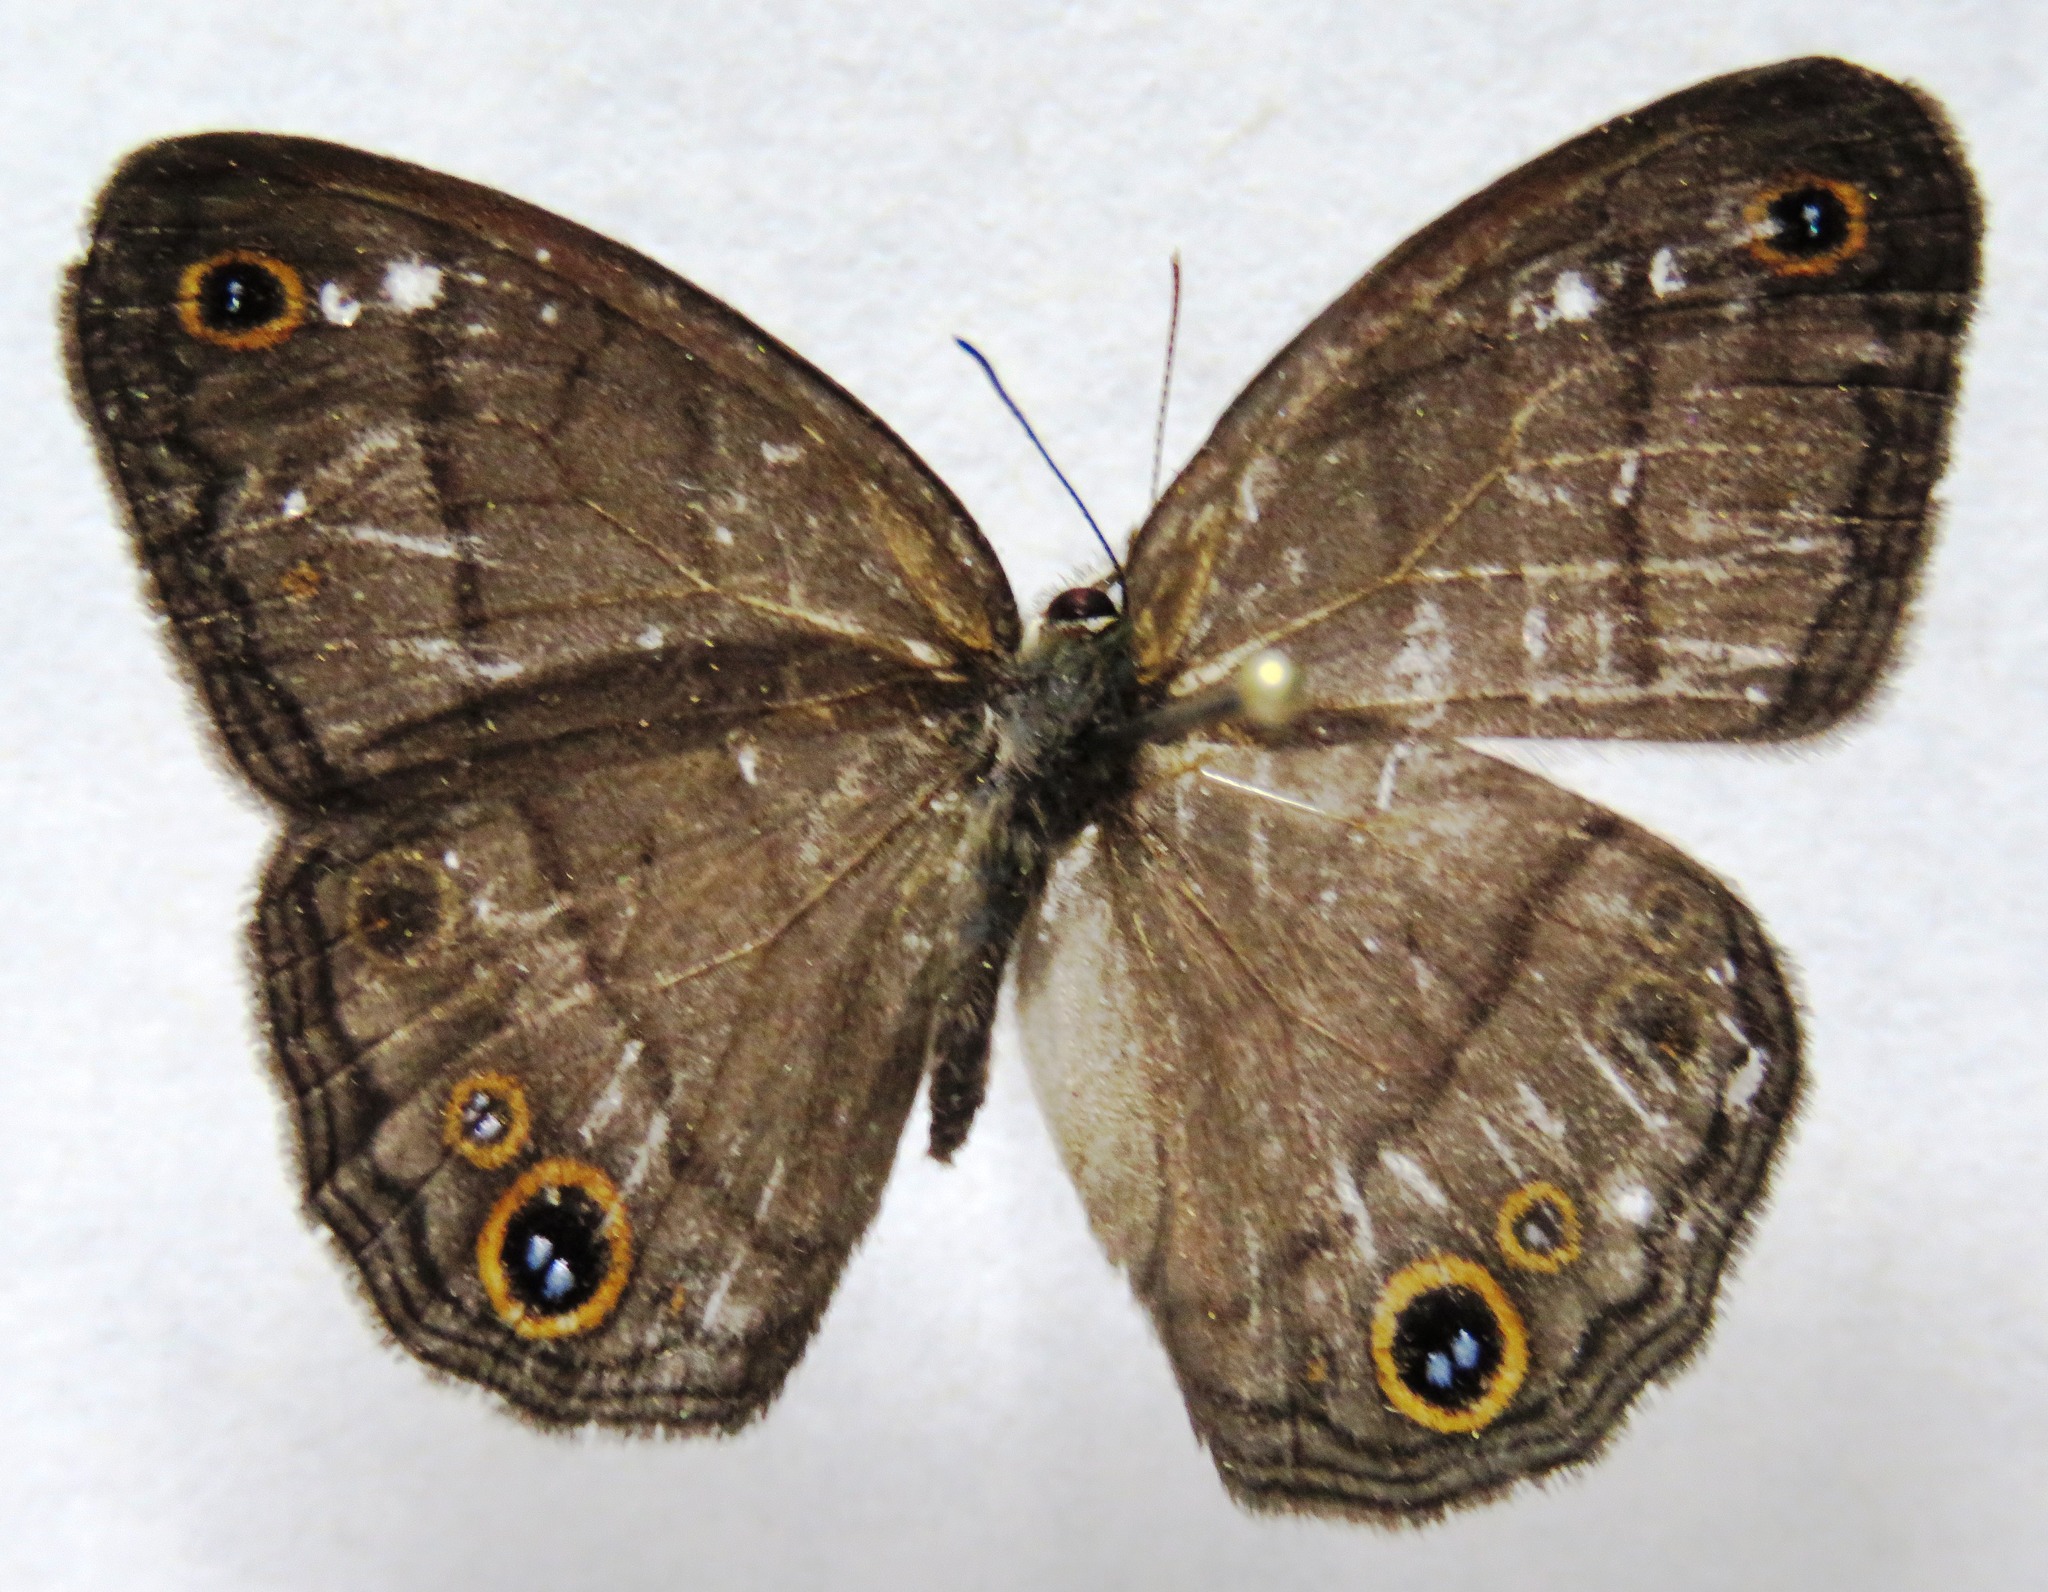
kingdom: Animalia
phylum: Arthropoda
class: Insecta
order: Lepidoptera
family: Nymphalidae
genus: Euptychia
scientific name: Euptychia Cissia pompilia
